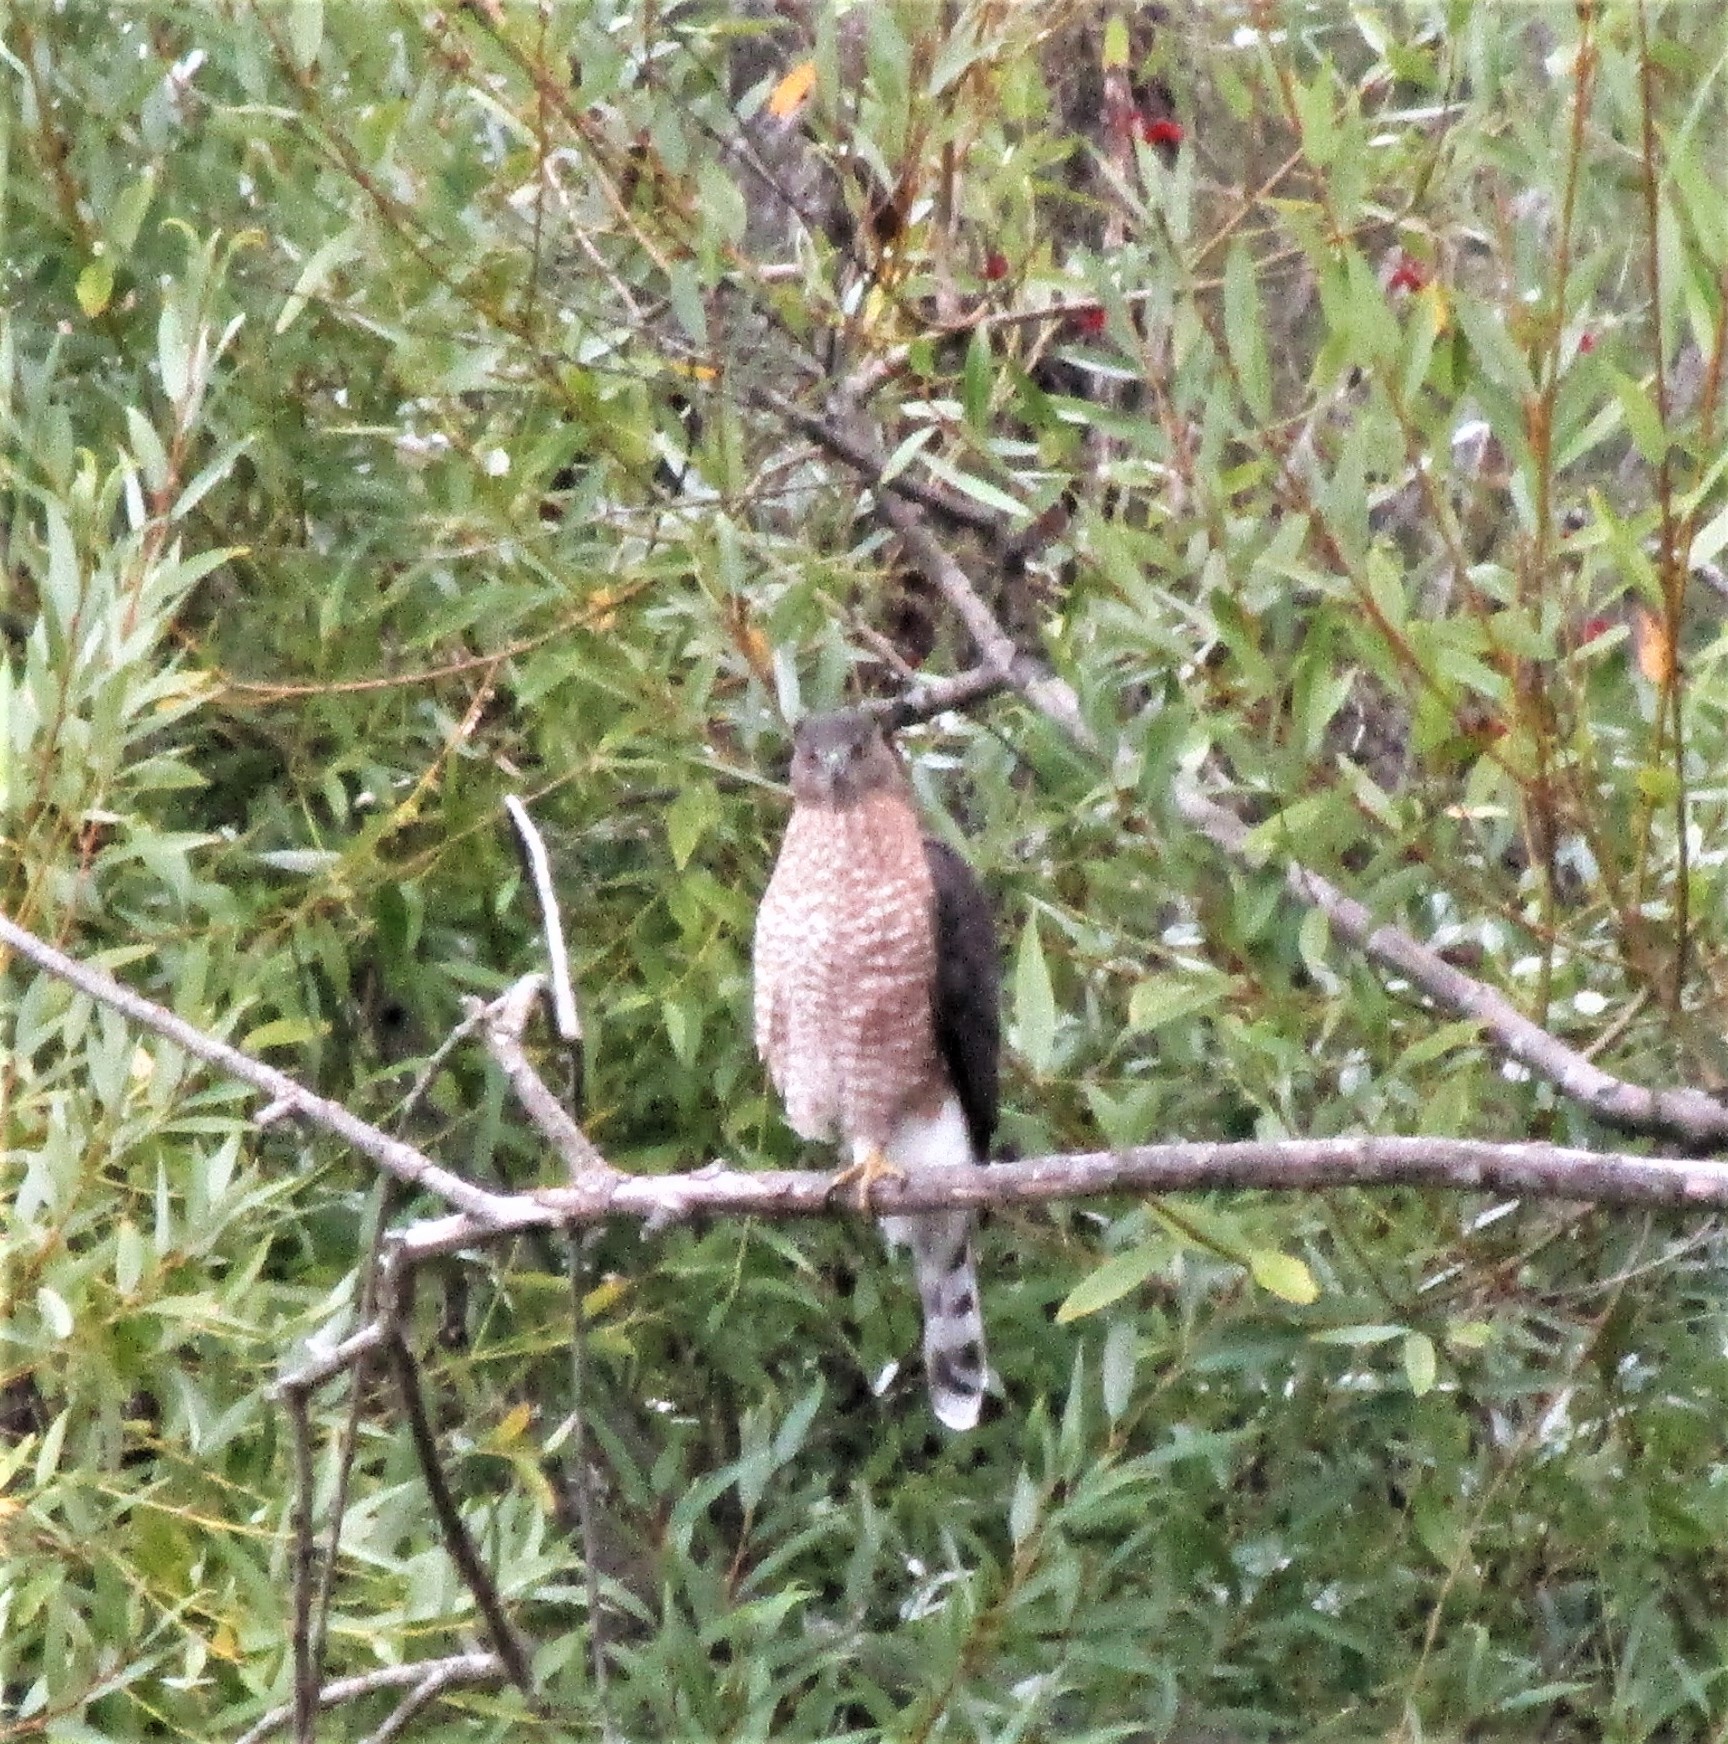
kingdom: Animalia
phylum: Chordata
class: Aves
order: Accipitriformes
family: Accipitridae
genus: Accipiter
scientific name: Accipiter cooperii
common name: Cooper's hawk
